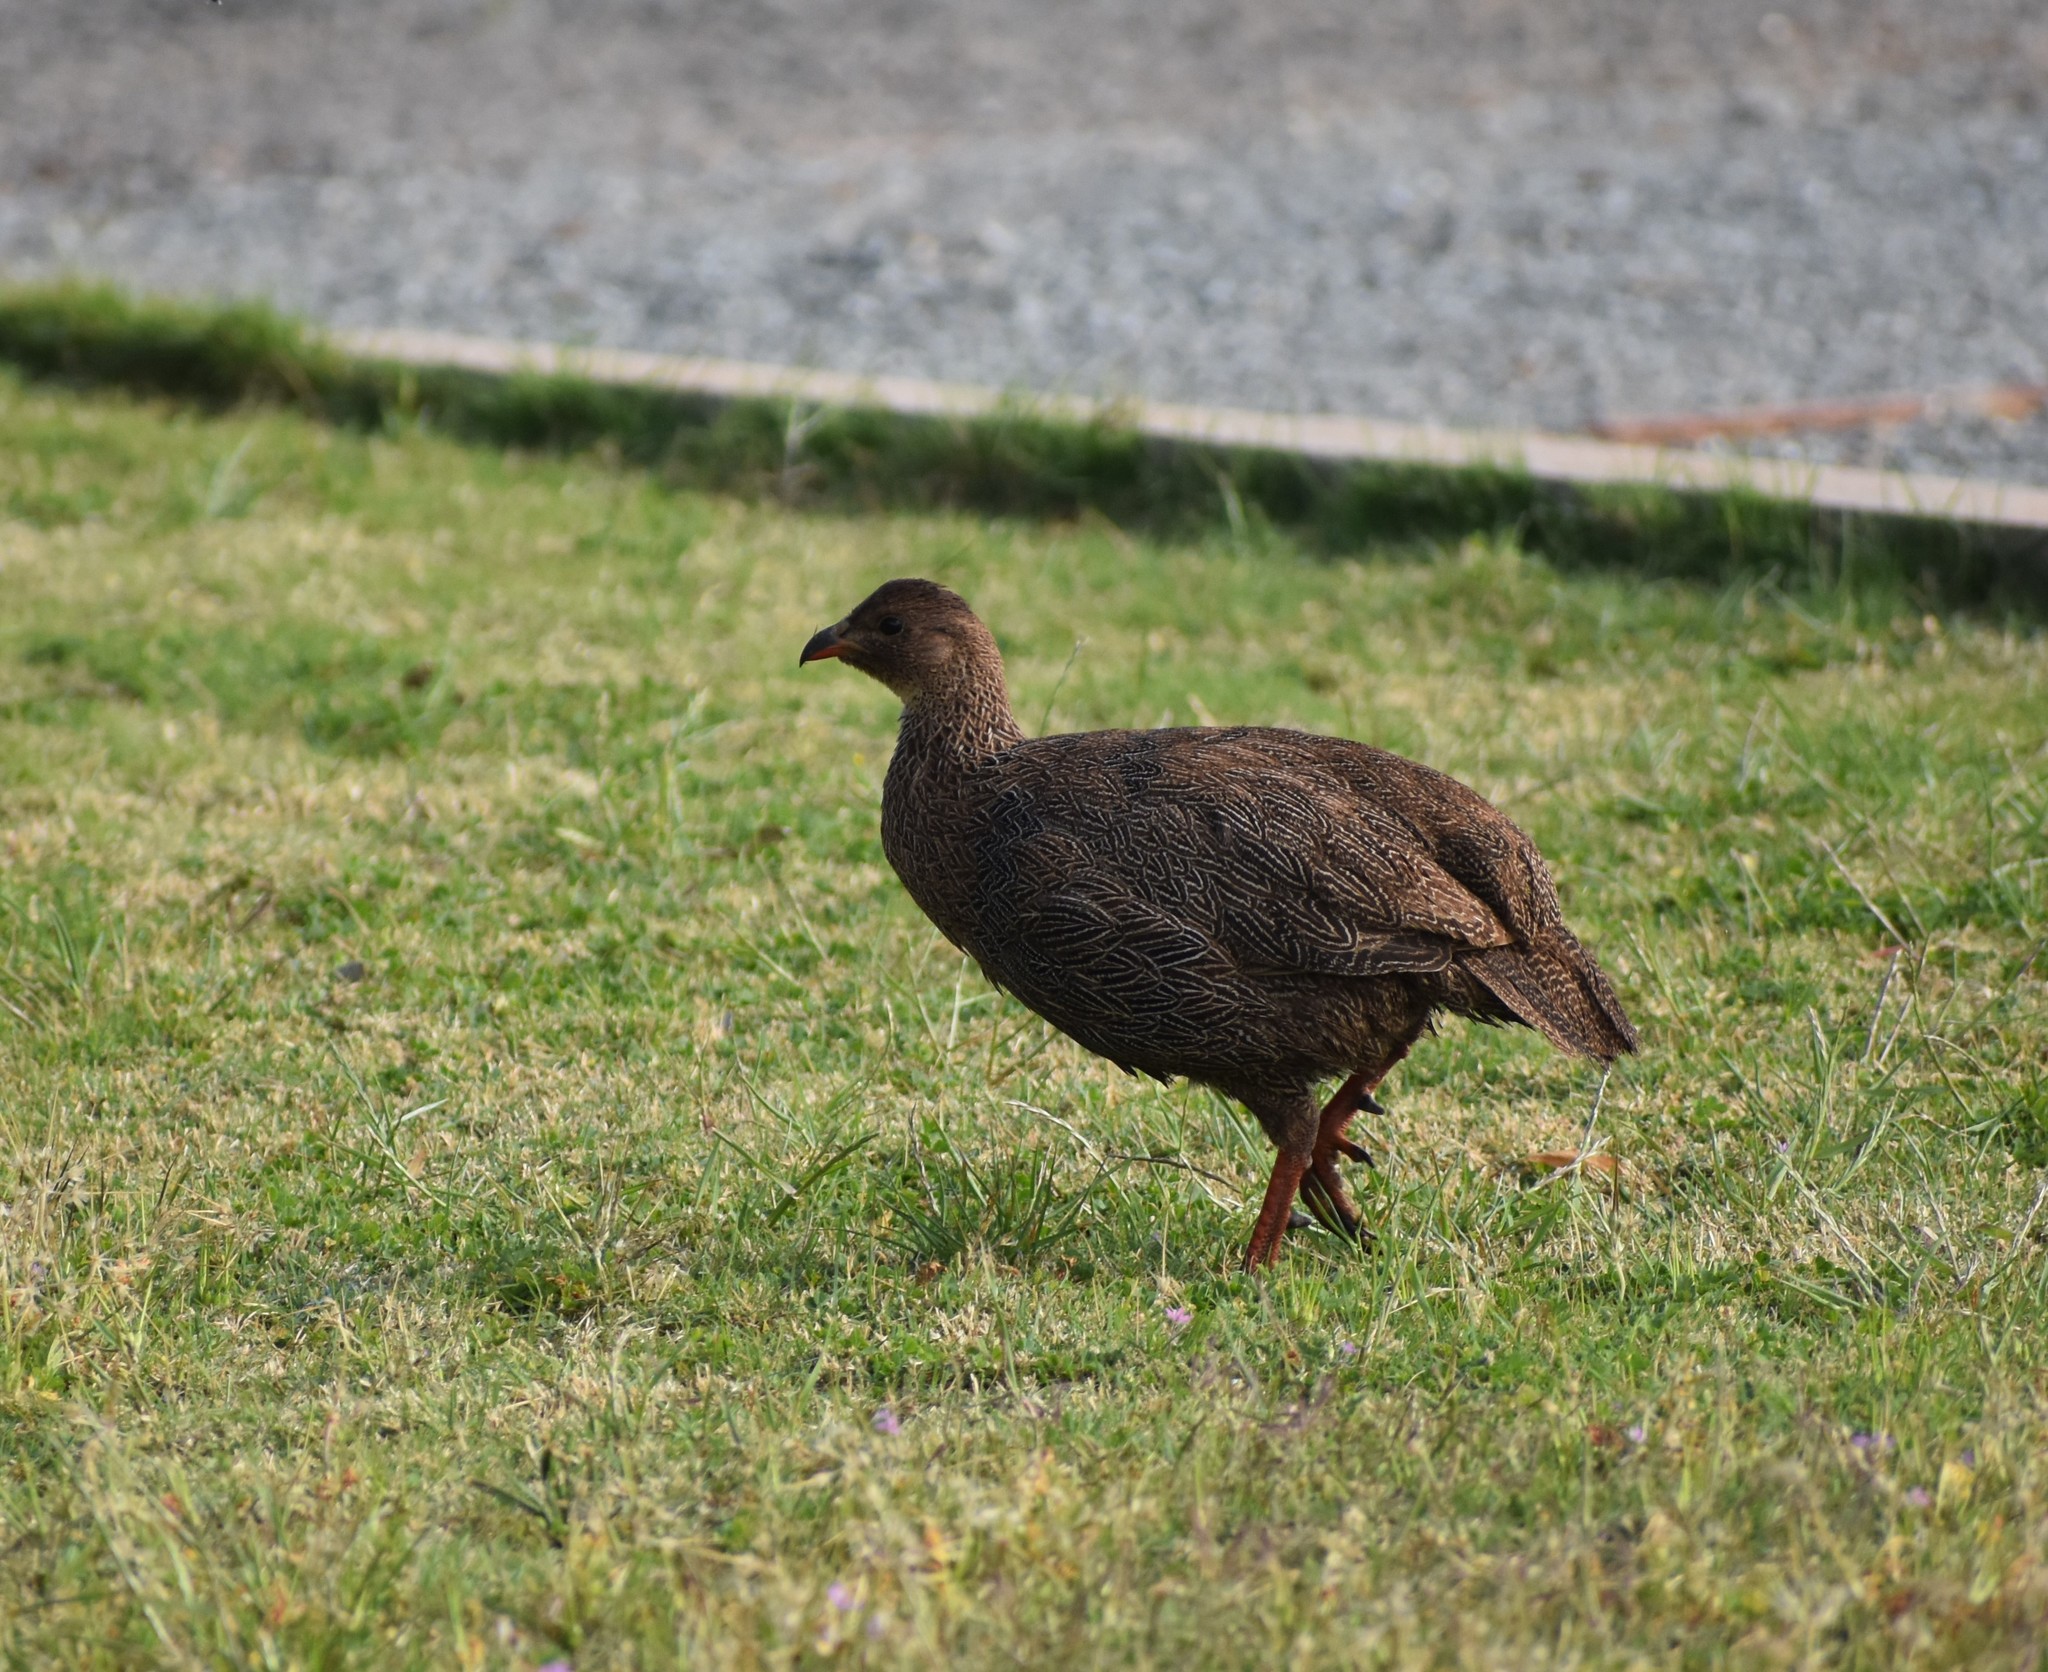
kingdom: Animalia
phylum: Chordata
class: Aves
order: Galliformes
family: Phasianidae
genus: Pternistis
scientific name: Pternistis capensis
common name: Cape spurfowl
